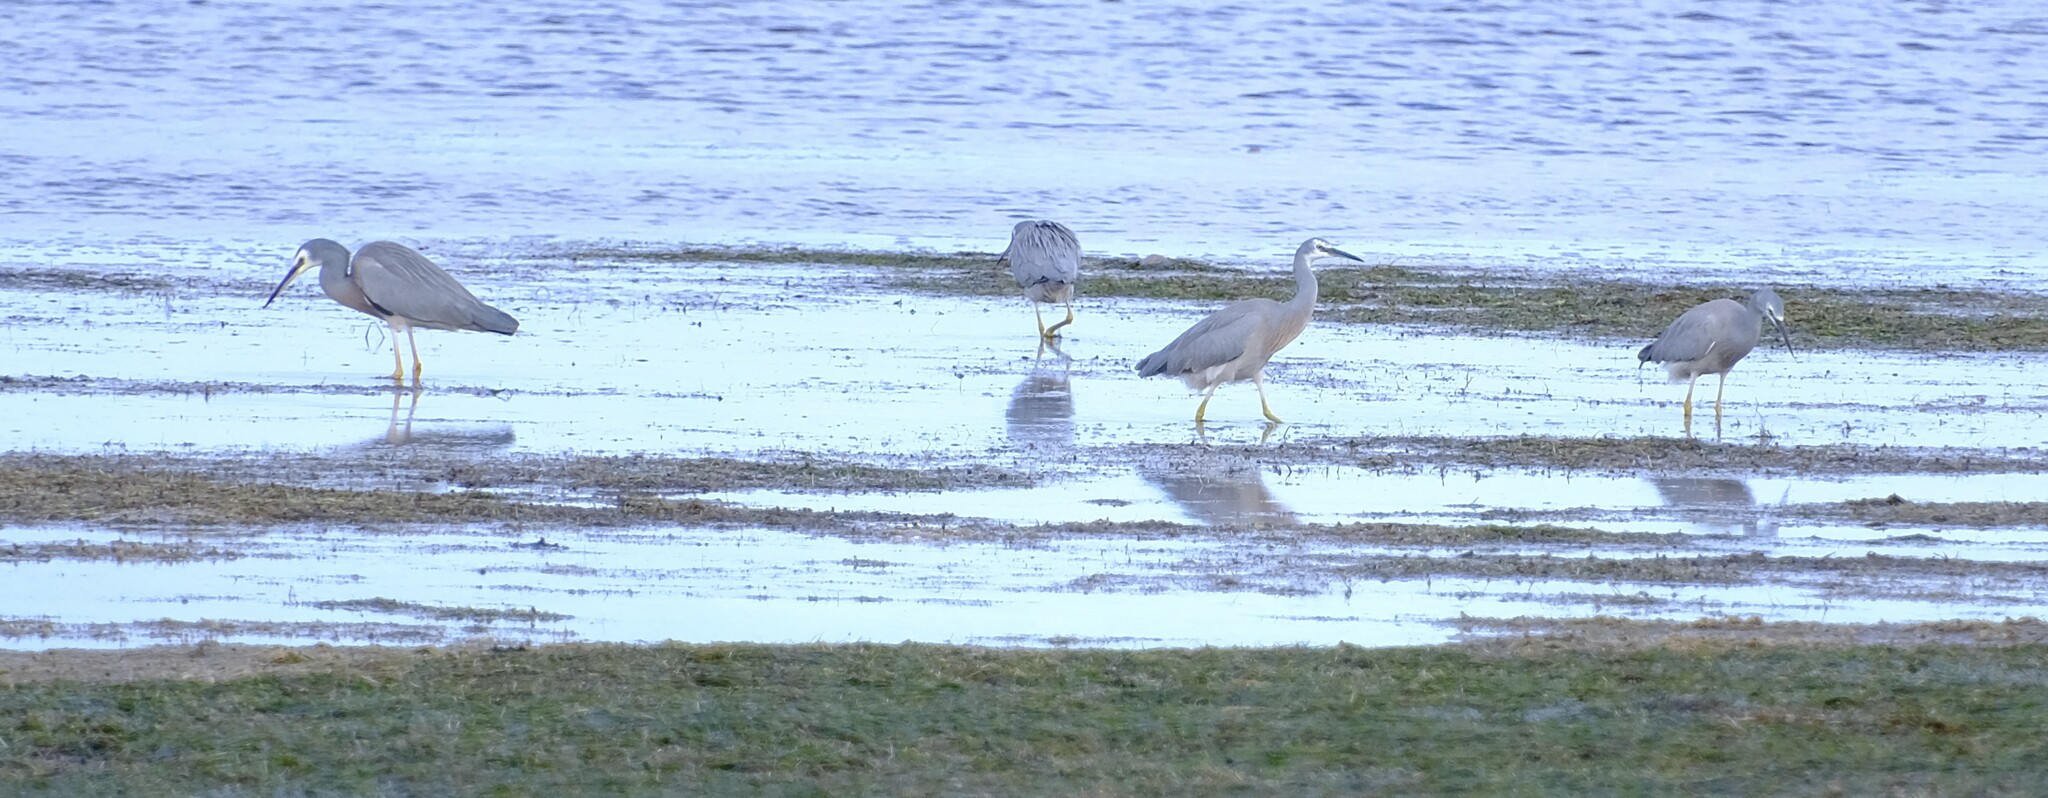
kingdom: Animalia
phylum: Chordata
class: Aves
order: Pelecaniformes
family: Ardeidae
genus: Egretta
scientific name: Egretta novaehollandiae
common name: White-faced heron
